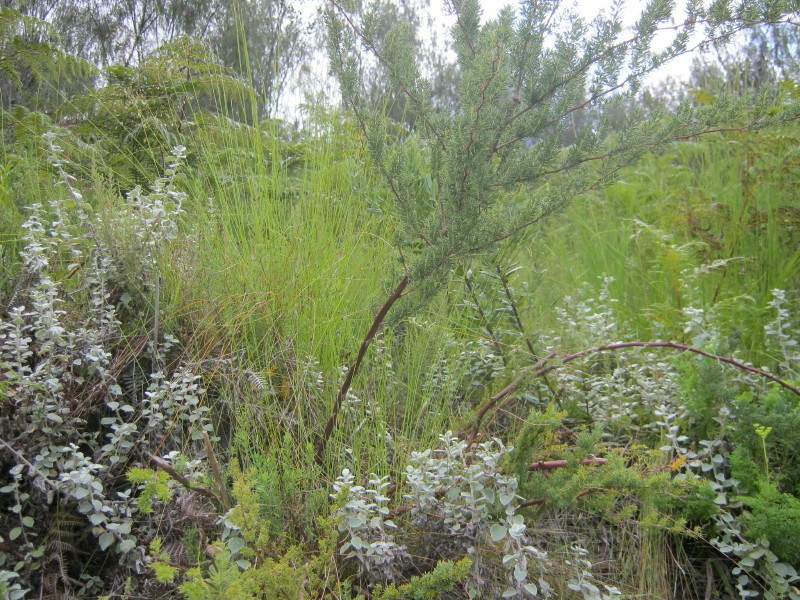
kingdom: Plantae
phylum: Tracheophyta
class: Liliopsida
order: Asparagales
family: Asparagaceae
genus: Asparagus
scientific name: Asparagus rubicundus
